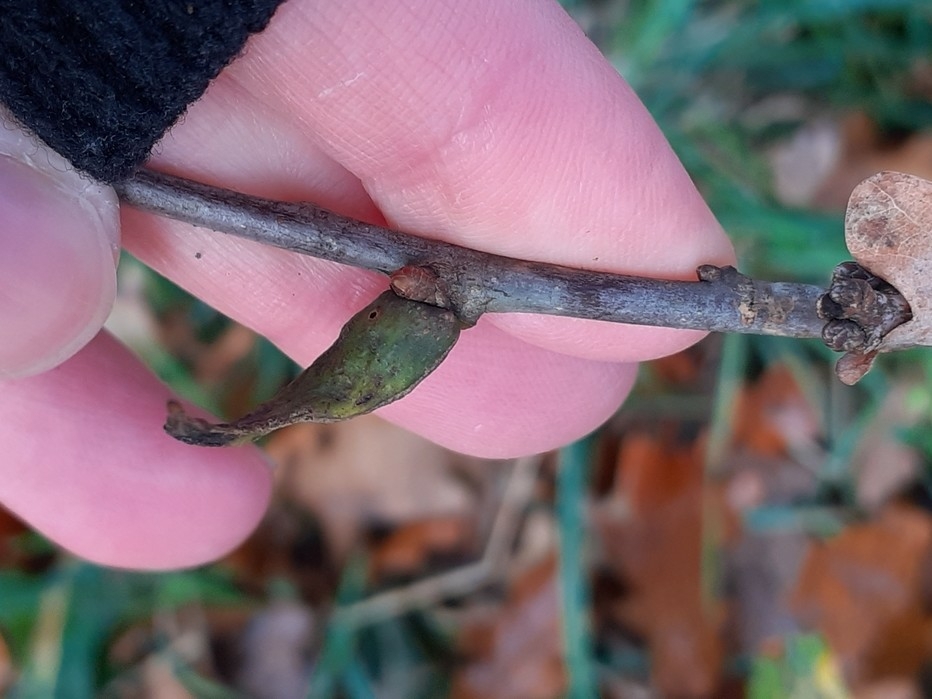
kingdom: Animalia
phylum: Arthropoda
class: Insecta
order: Hymenoptera
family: Cynipidae
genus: Andricus
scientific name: Andricus aries
